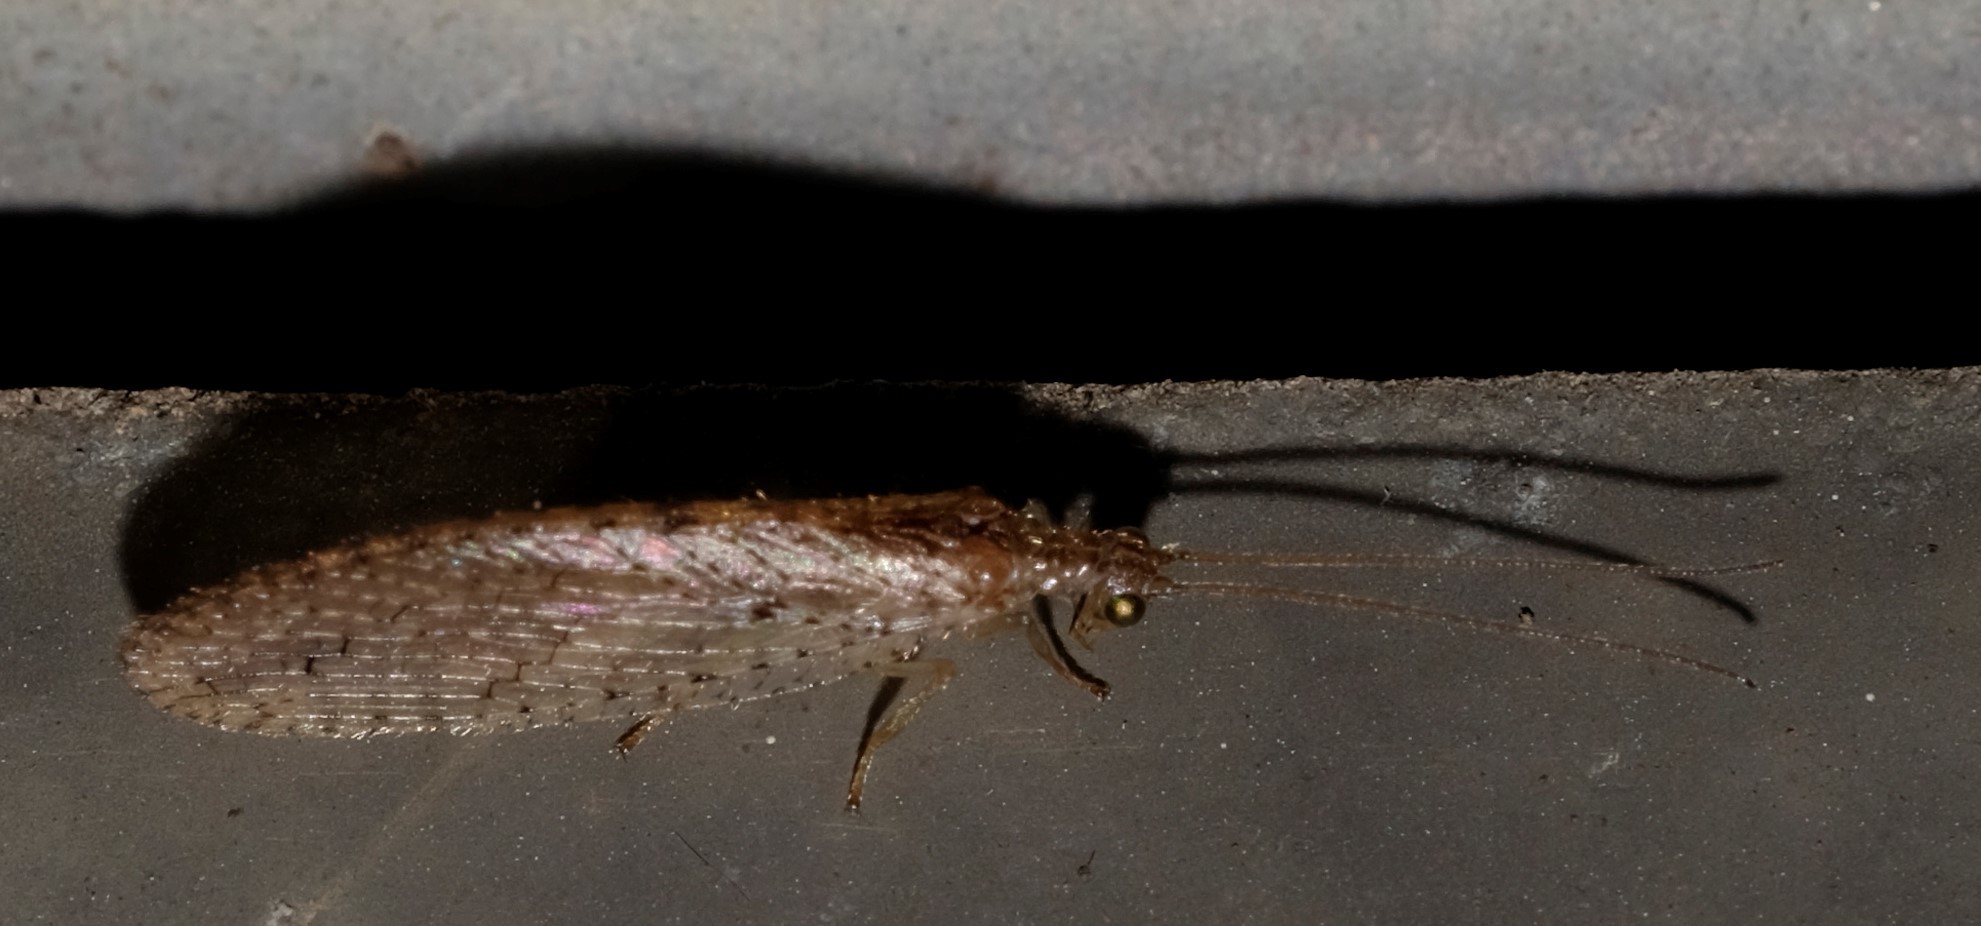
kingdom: Animalia
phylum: Arthropoda
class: Insecta
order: Neuroptera
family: Hemerobiidae
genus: Micromus
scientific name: Micromus tasmaniae
